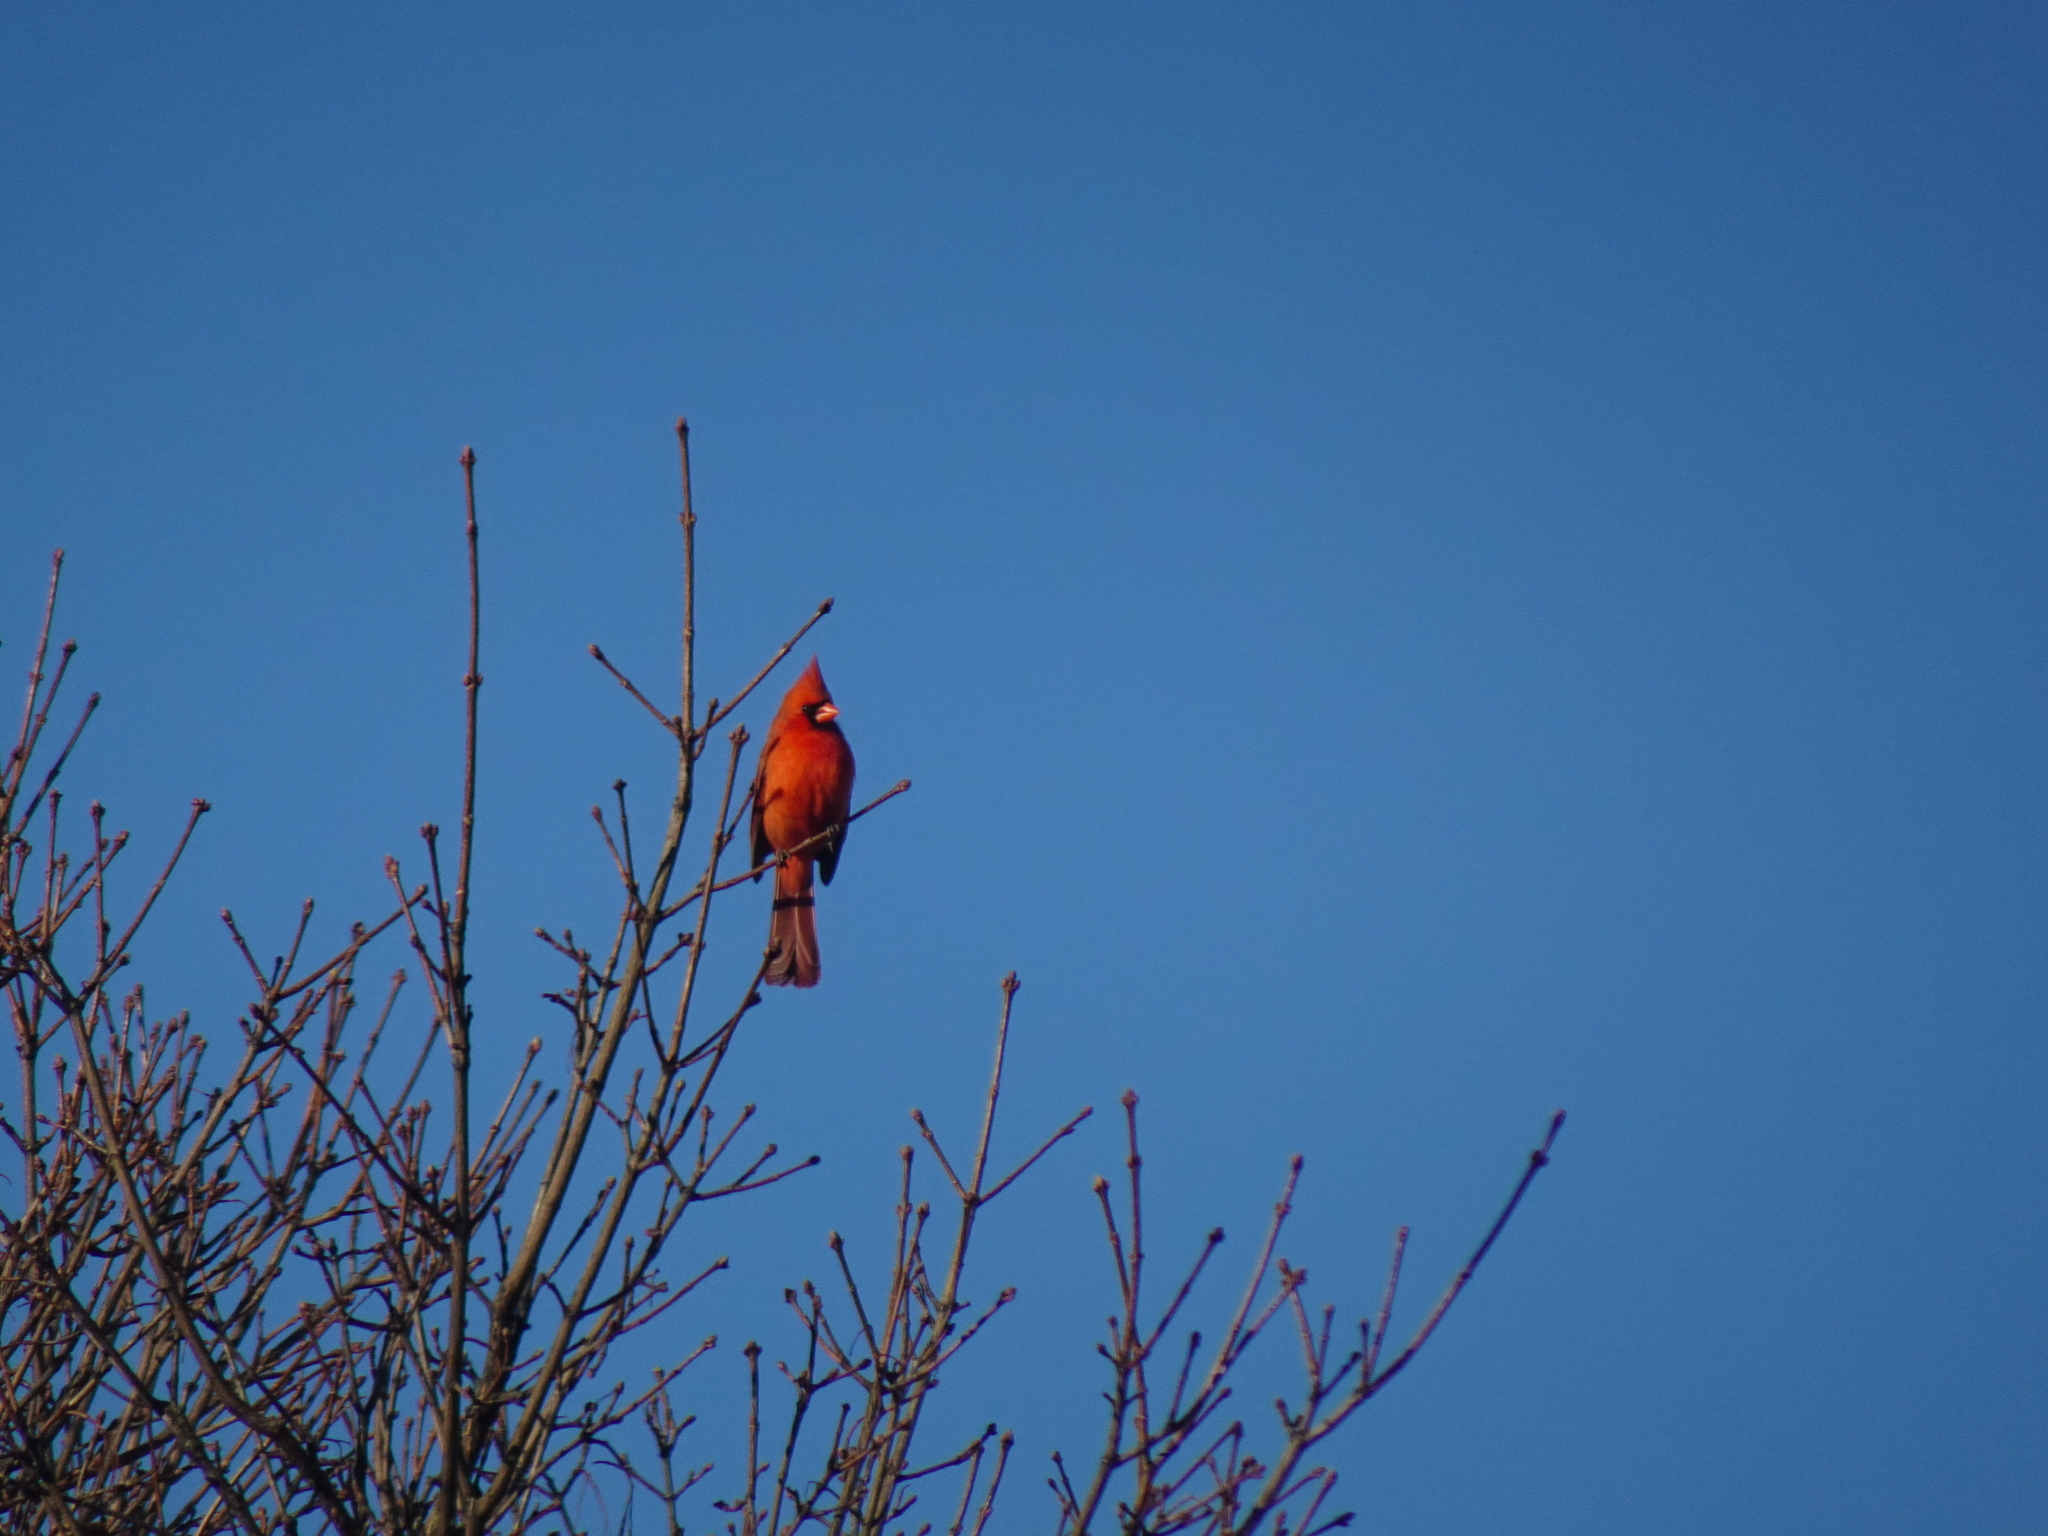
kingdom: Animalia
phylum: Chordata
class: Aves
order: Passeriformes
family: Cardinalidae
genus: Cardinalis
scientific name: Cardinalis cardinalis
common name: Northern cardinal
